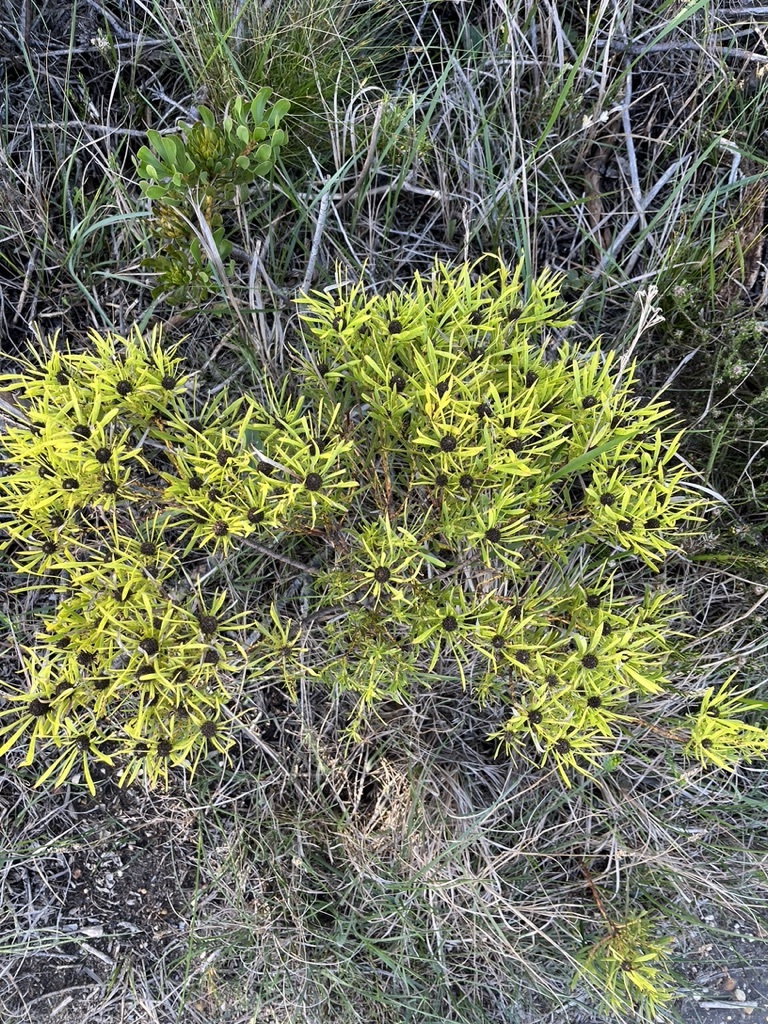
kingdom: Plantae
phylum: Tracheophyta
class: Magnoliopsida
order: Proteales
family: Proteaceae
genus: Leucadendron
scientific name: Leucadendron salignum
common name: Common sunshine conebush
